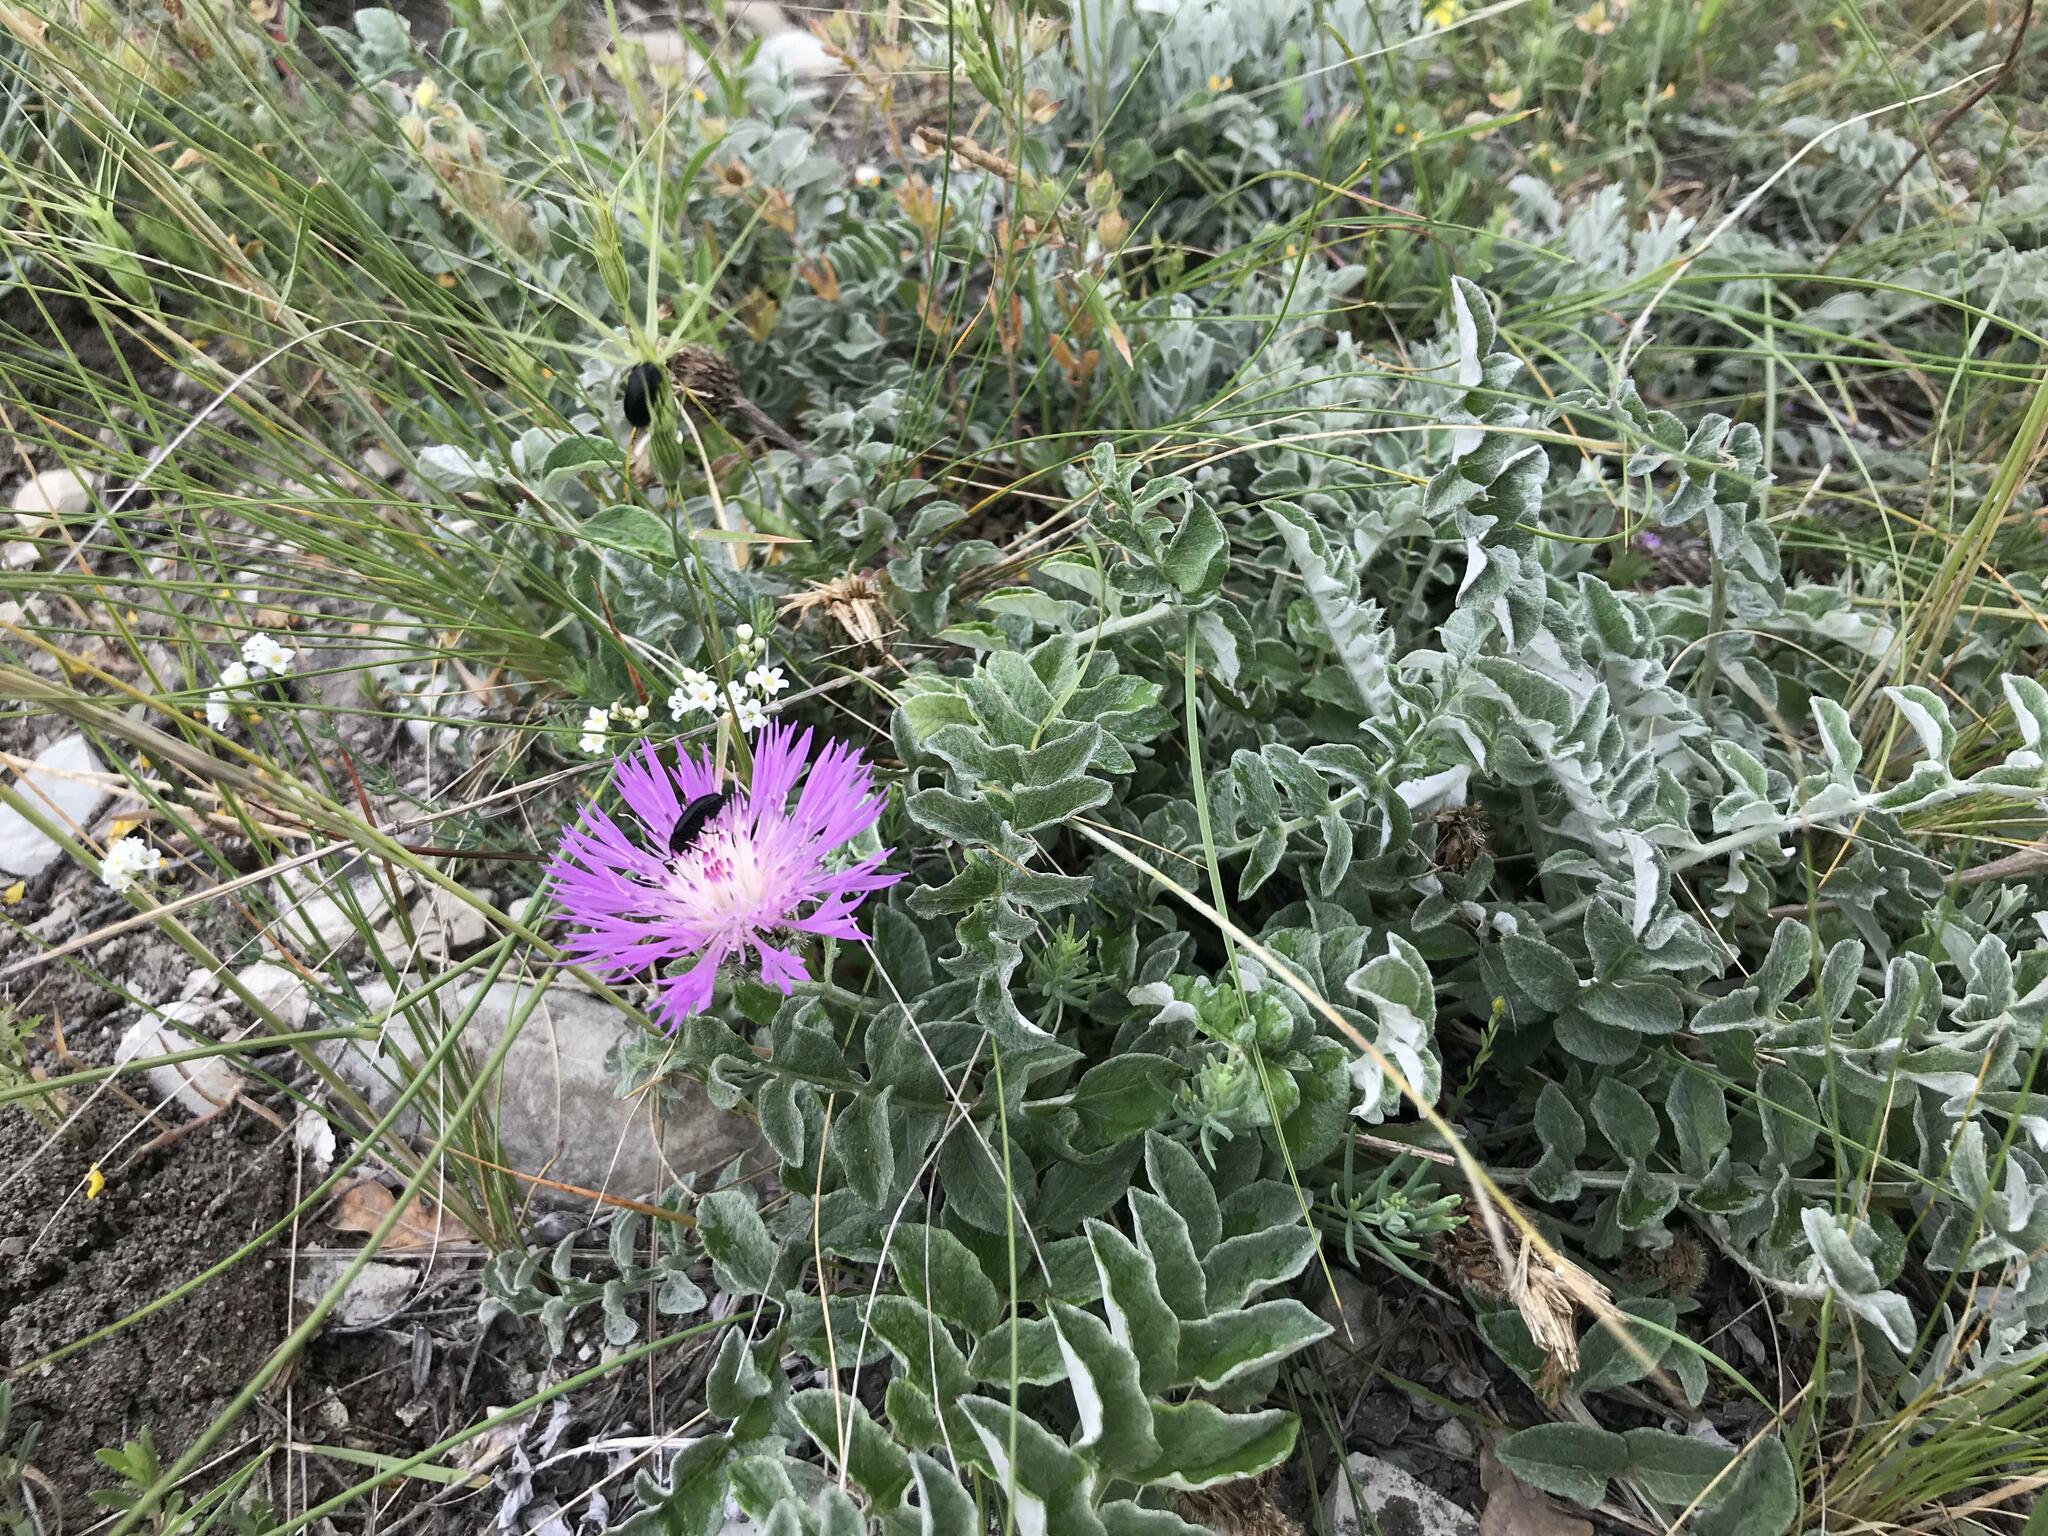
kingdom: Plantae
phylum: Tracheophyta
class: Magnoliopsida
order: Asterales
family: Asteraceae
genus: Psephellus
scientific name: Psephellus declinatus
